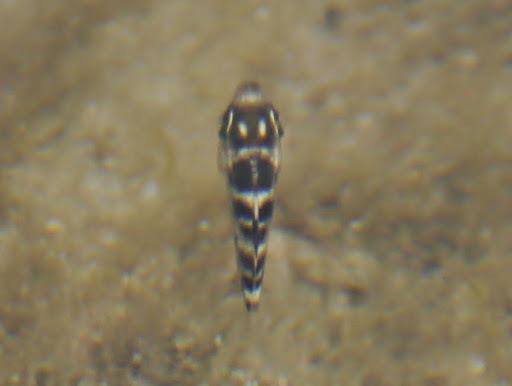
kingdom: Animalia
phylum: Chordata
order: Perciformes
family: Pomacentridae
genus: Abudefduf
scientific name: Abudefduf taurus
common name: Night sergeant
